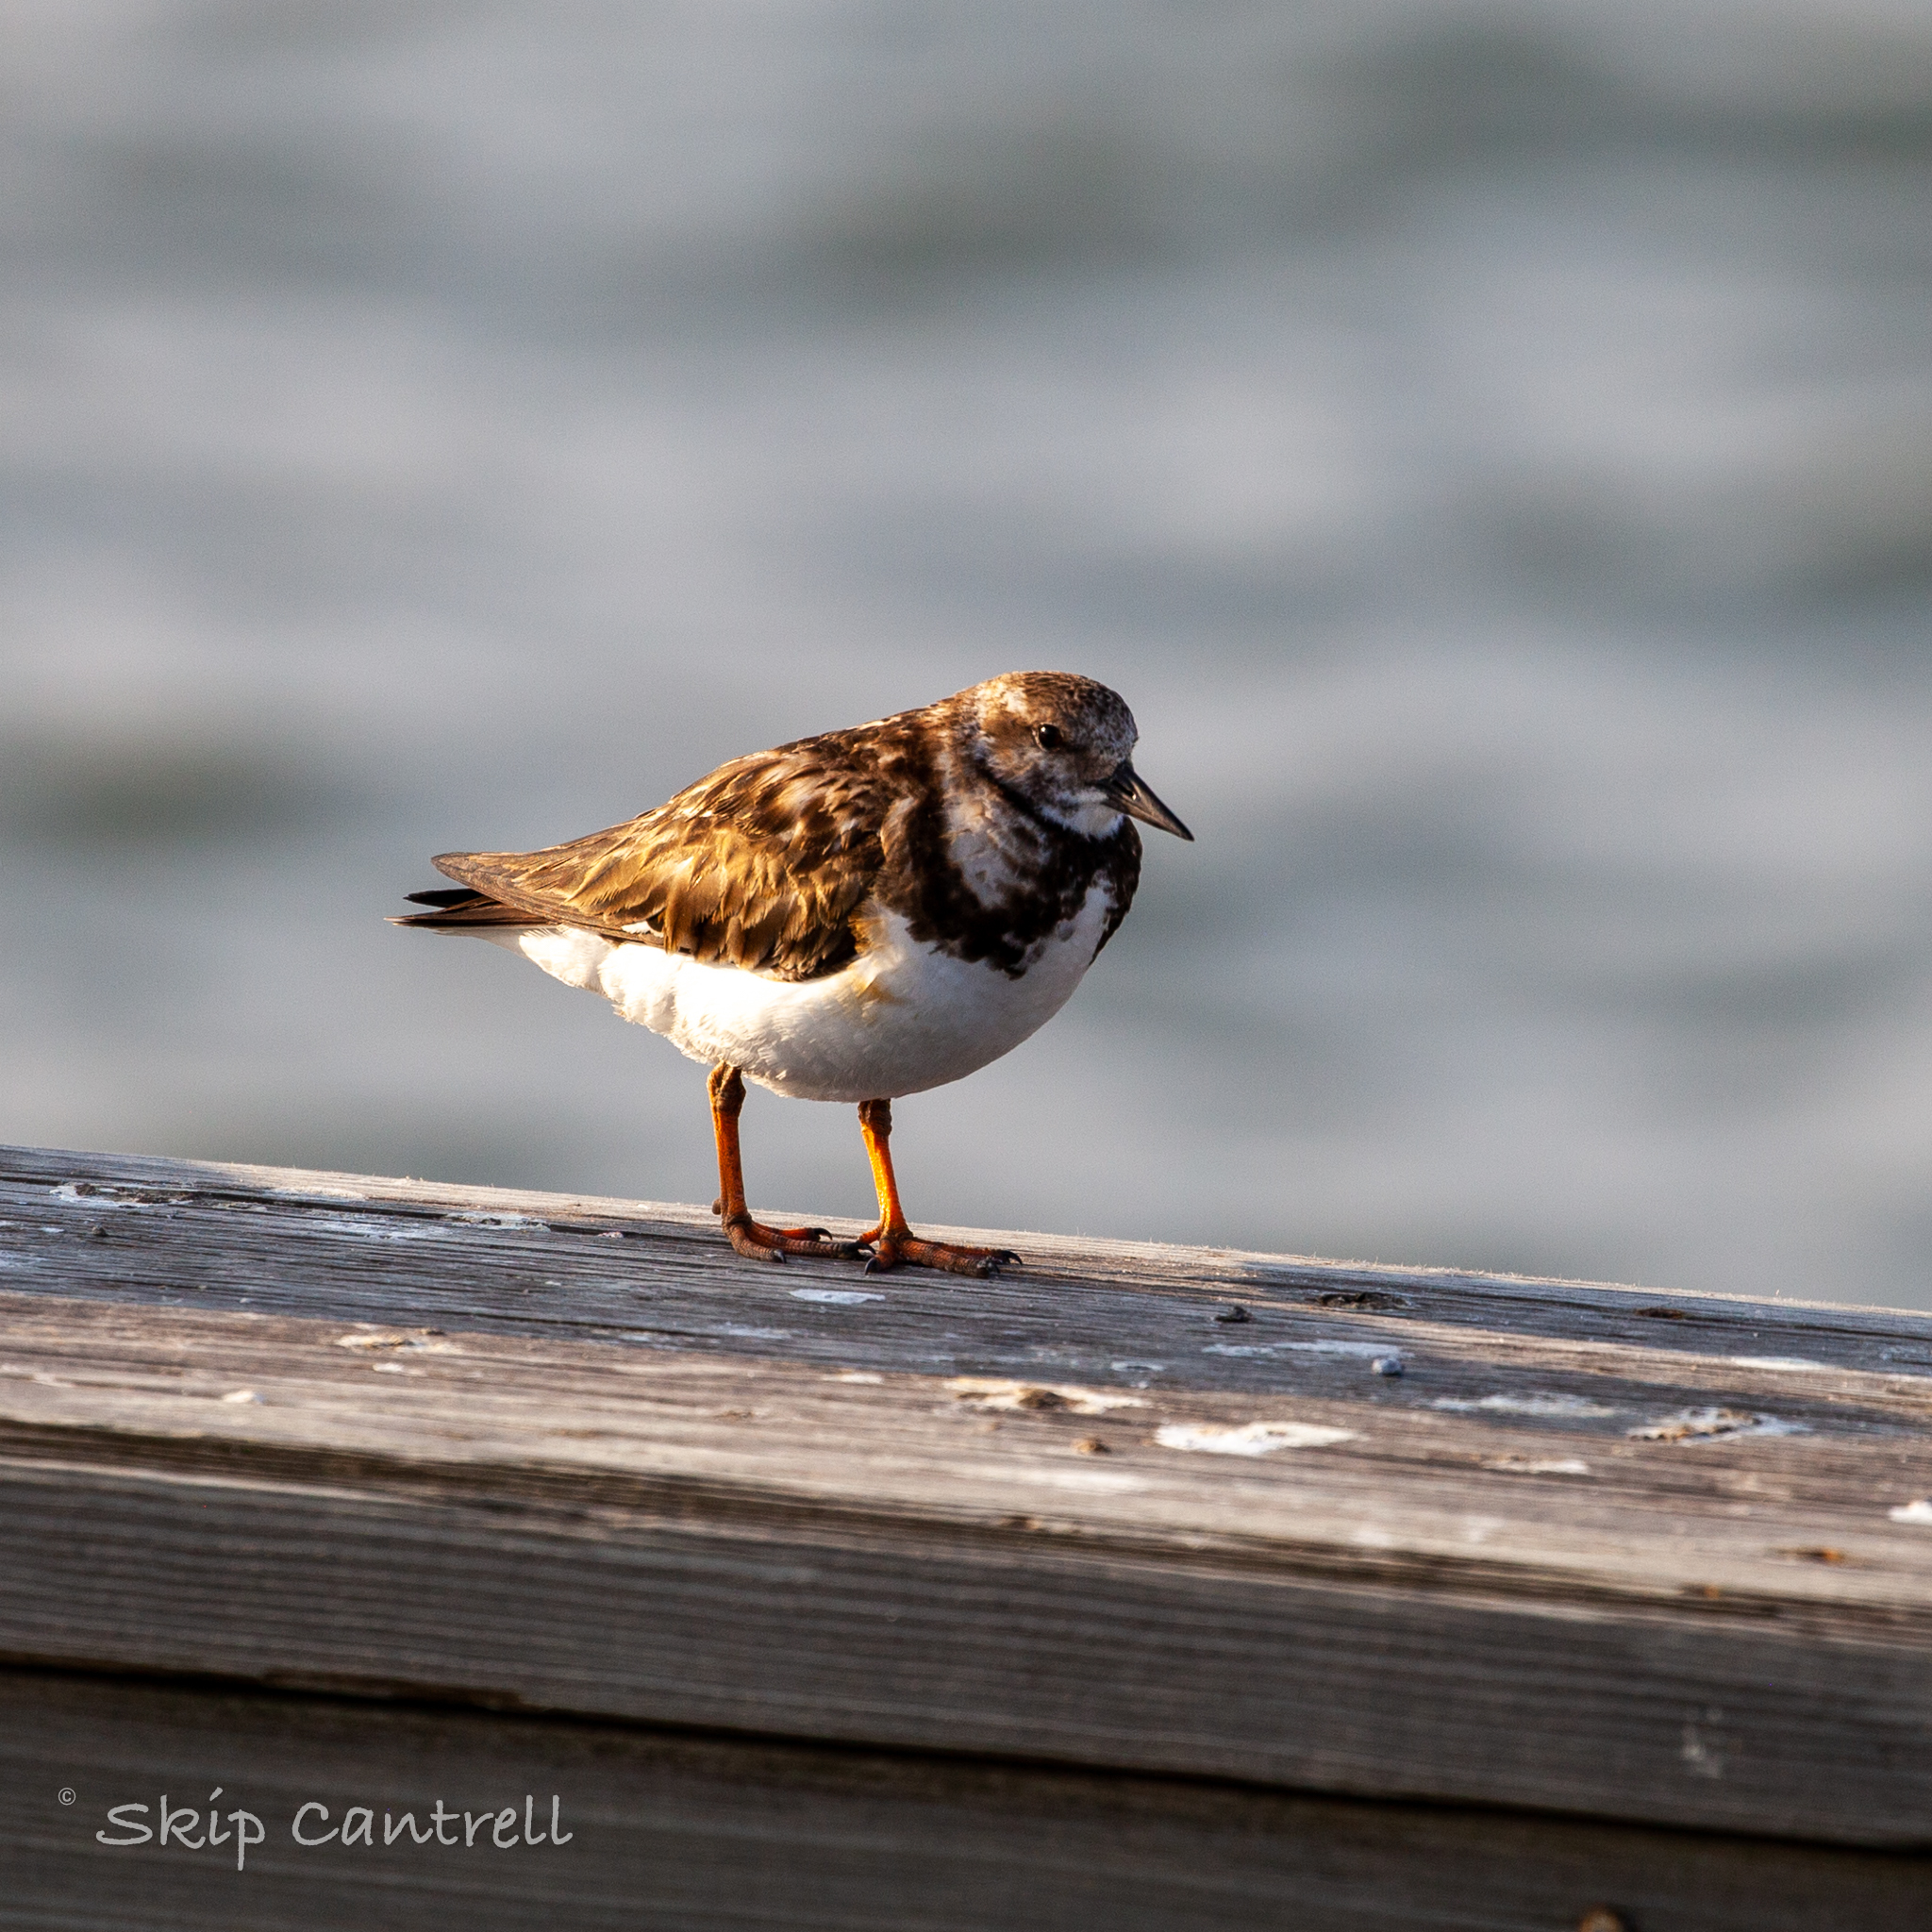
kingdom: Animalia
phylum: Chordata
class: Aves
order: Charadriiformes
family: Scolopacidae
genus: Arenaria
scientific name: Arenaria interpres
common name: Ruddy turnstone
